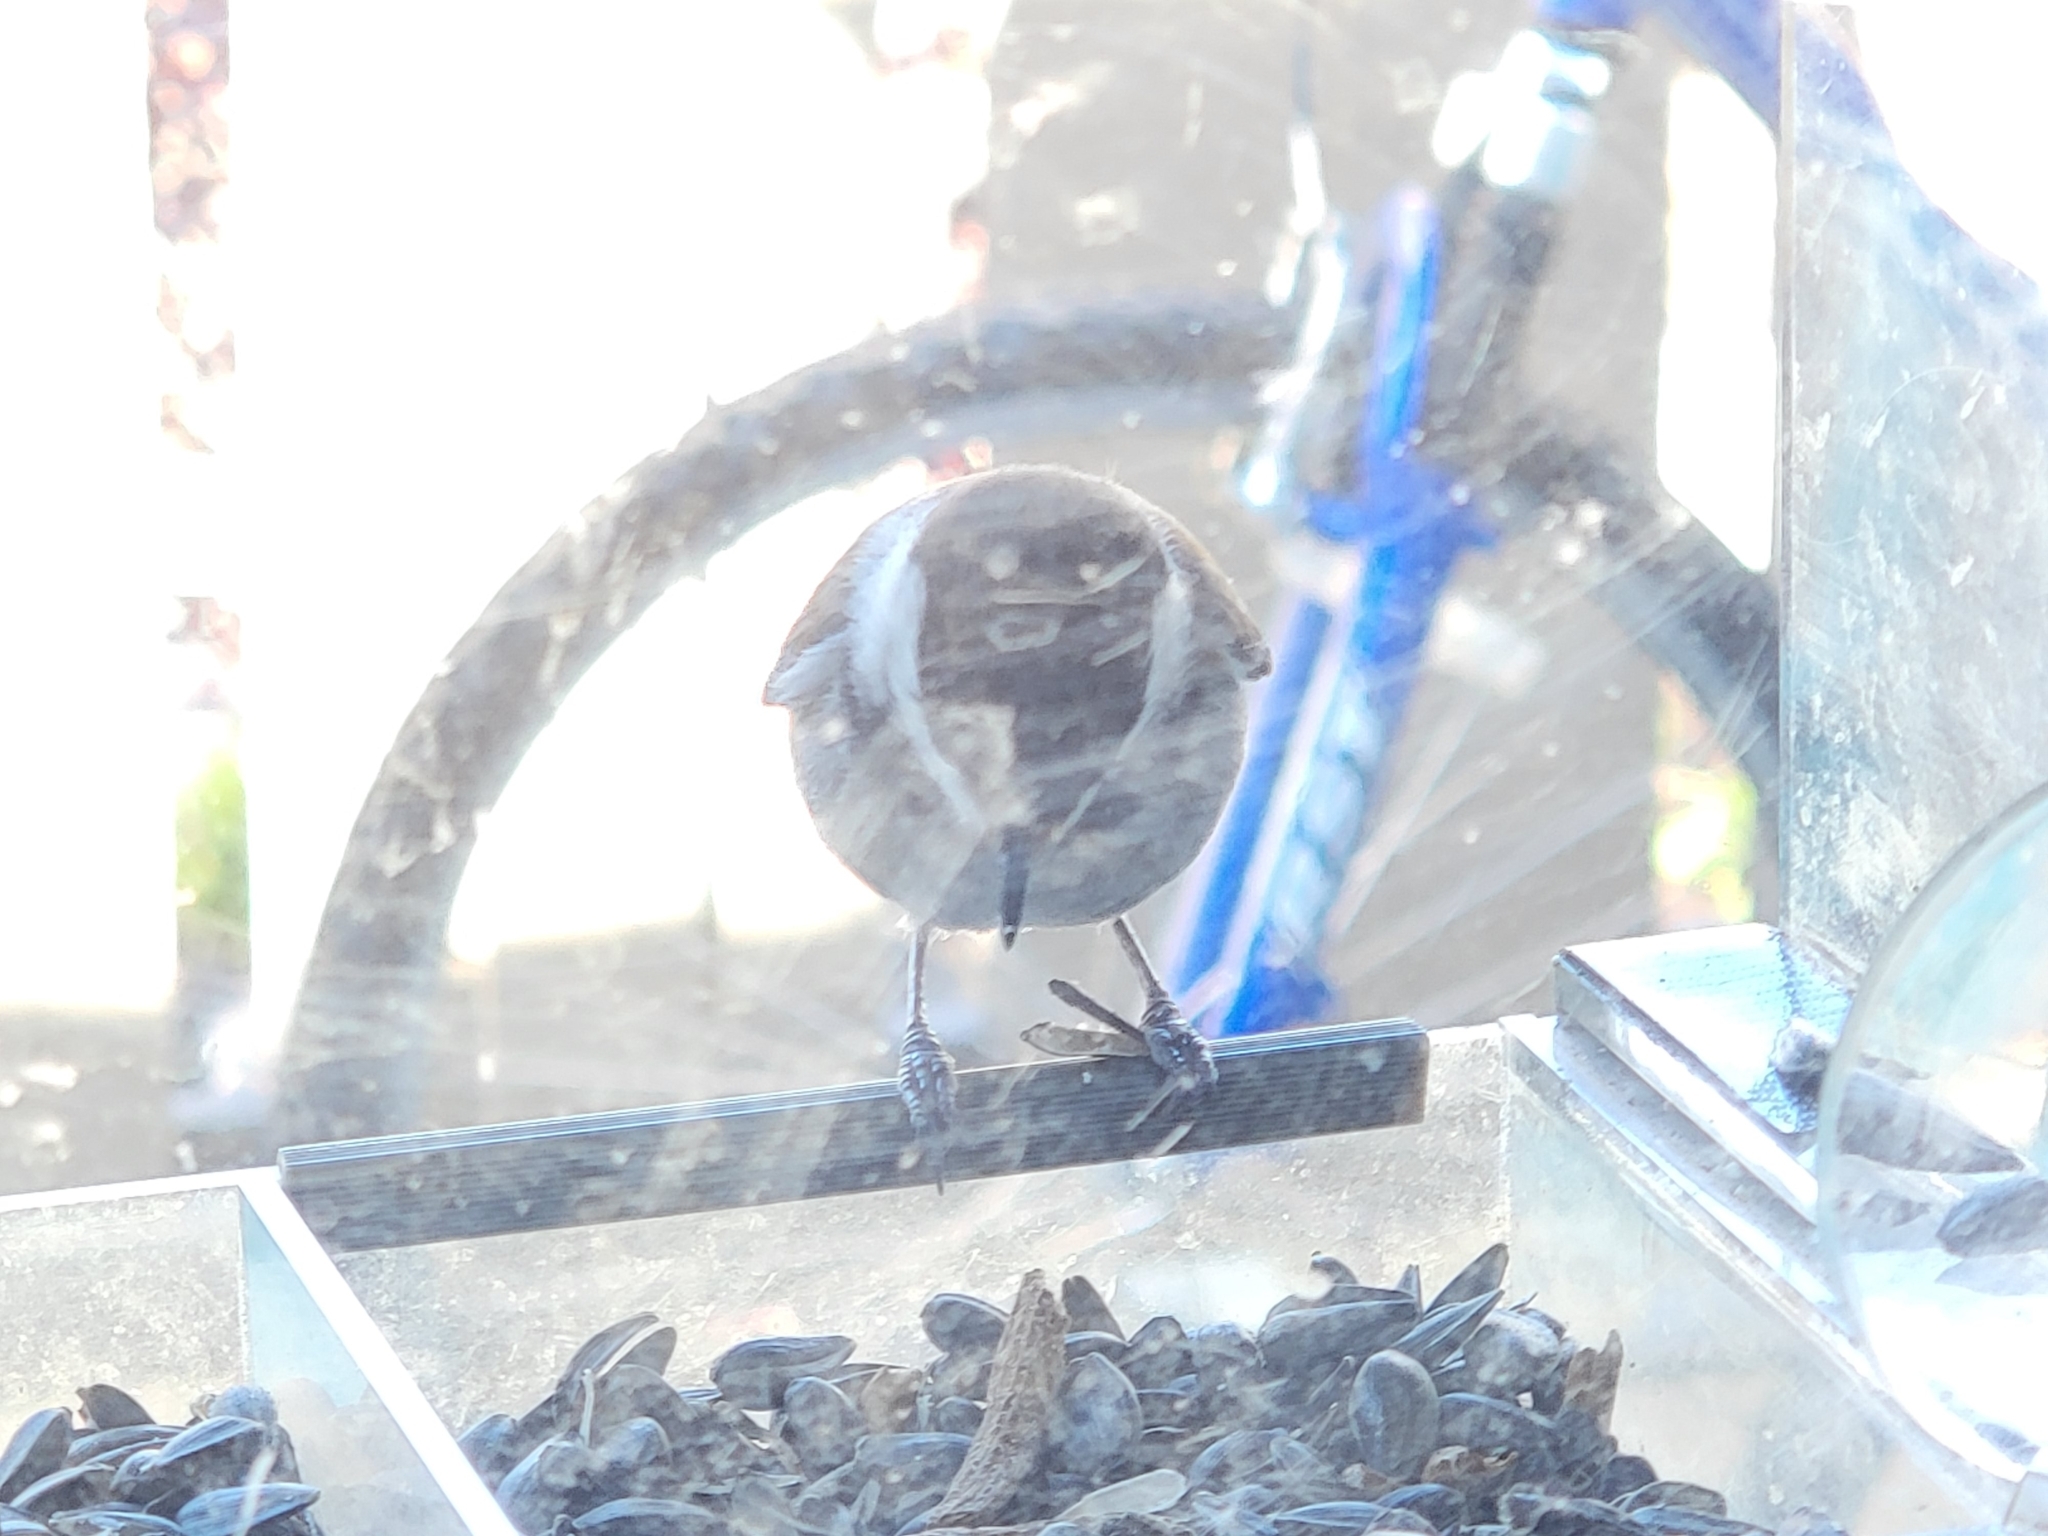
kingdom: Animalia
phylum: Chordata
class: Aves
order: Passeriformes
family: Paridae
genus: Poecile
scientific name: Poecile rufescens
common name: Chestnut-backed chickadee
